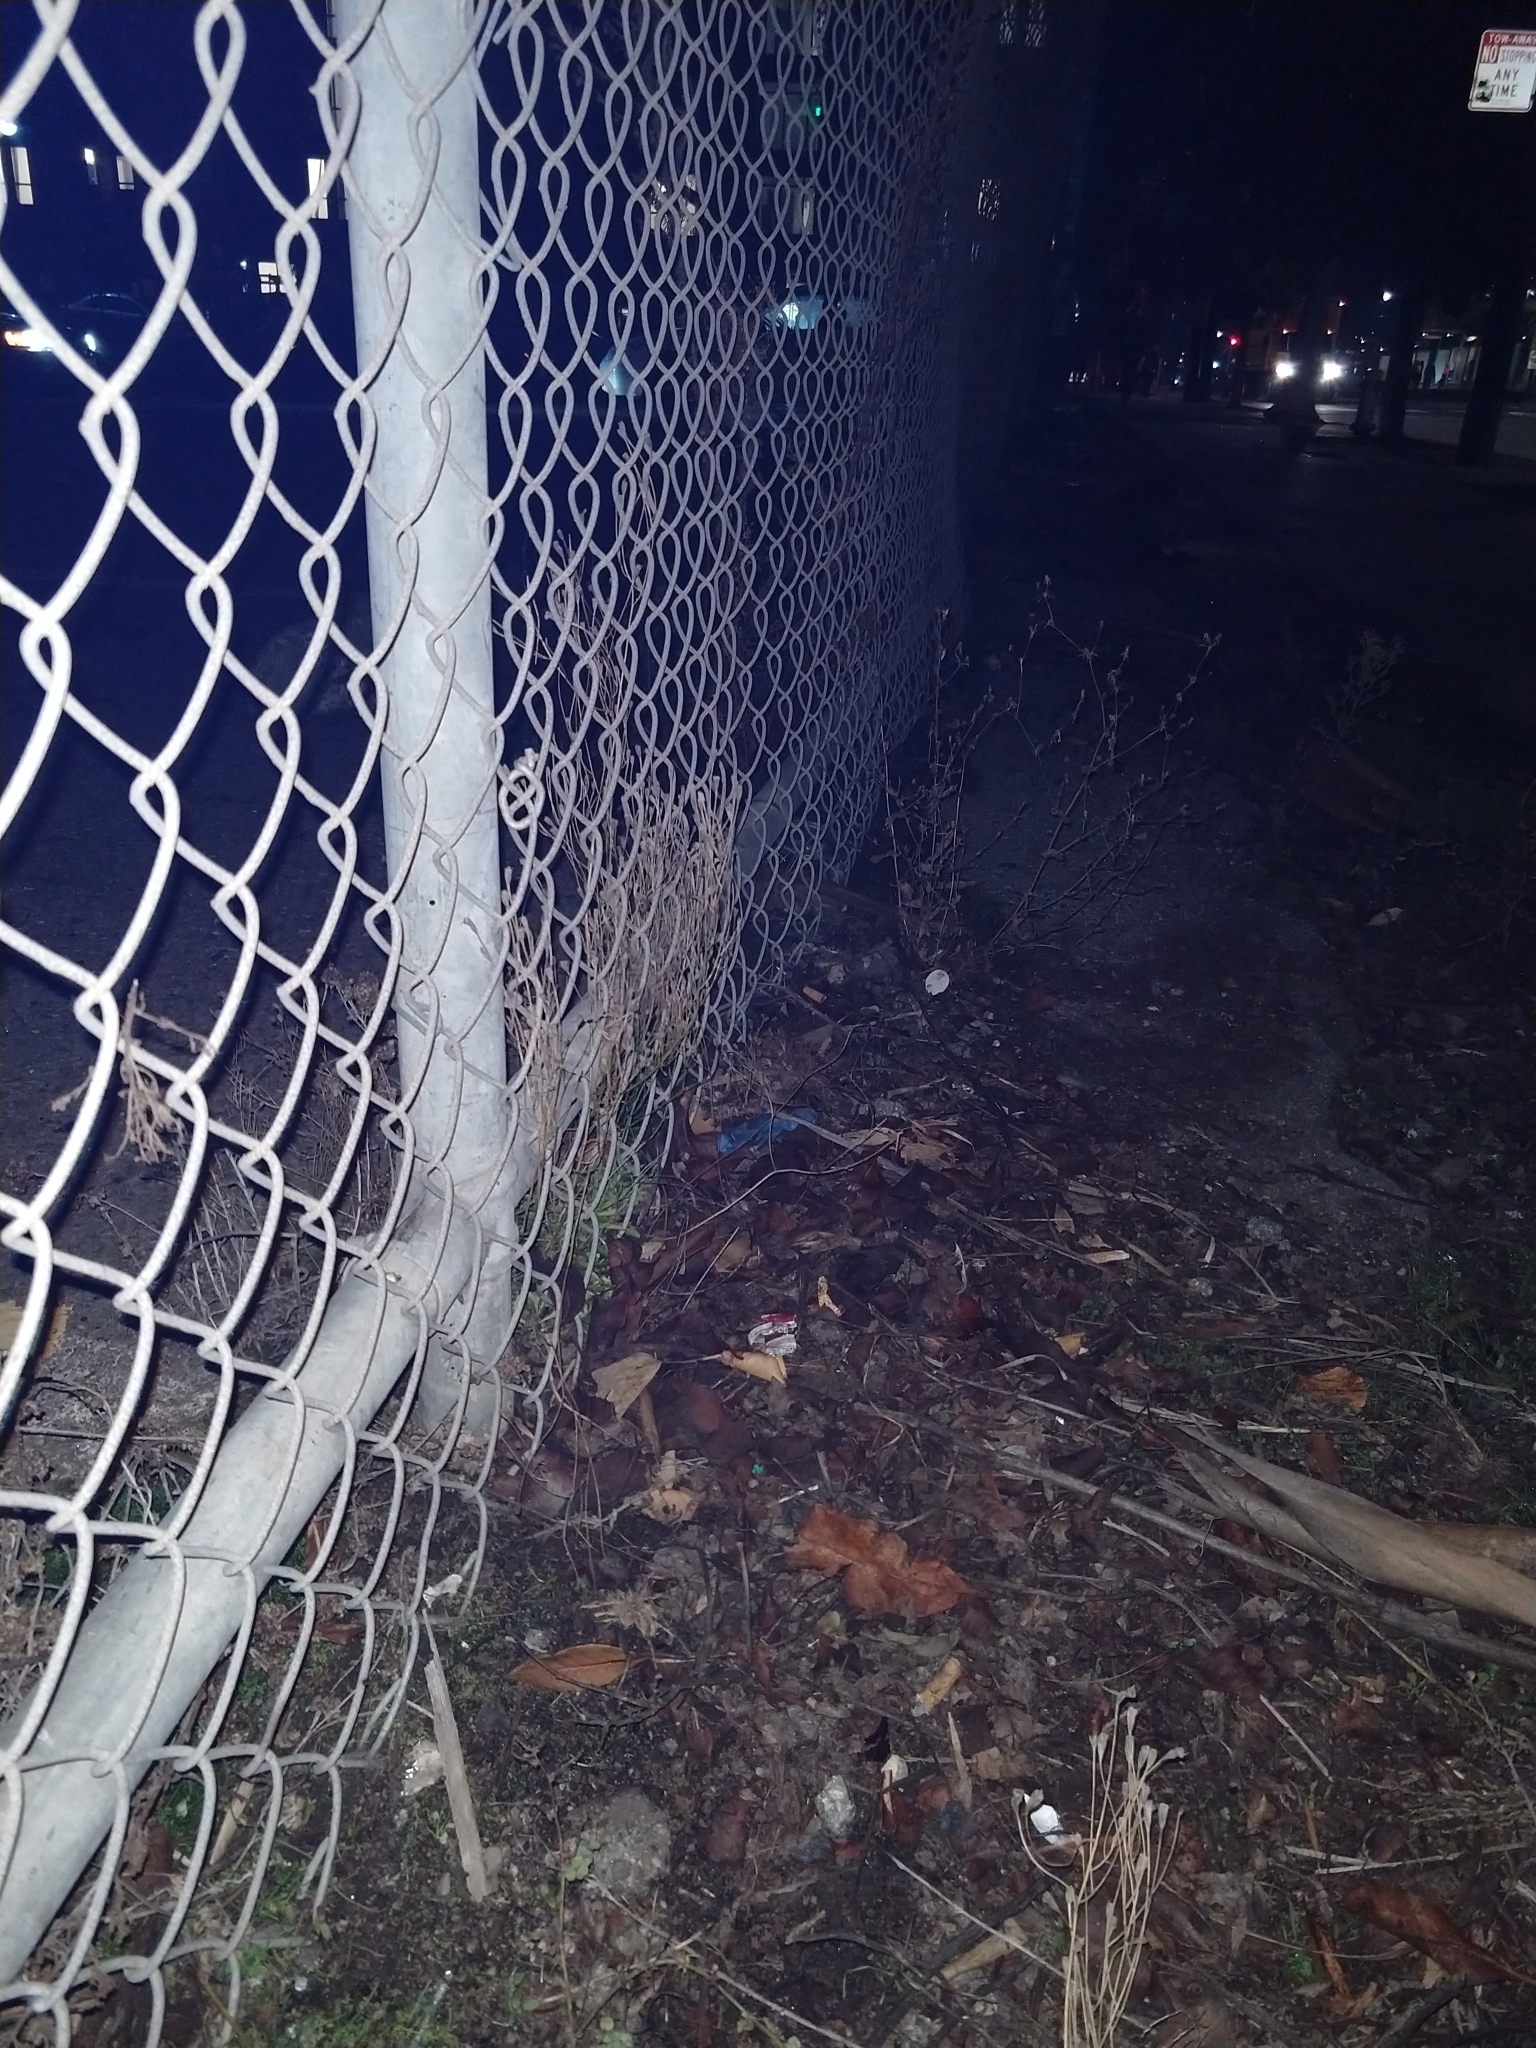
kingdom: Plantae
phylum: Tracheophyta
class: Magnoliopsida
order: Asterales
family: Campanulaceae
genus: Wahlenbergia
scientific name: Wahlenbergia marginata
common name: Southern rockbell
